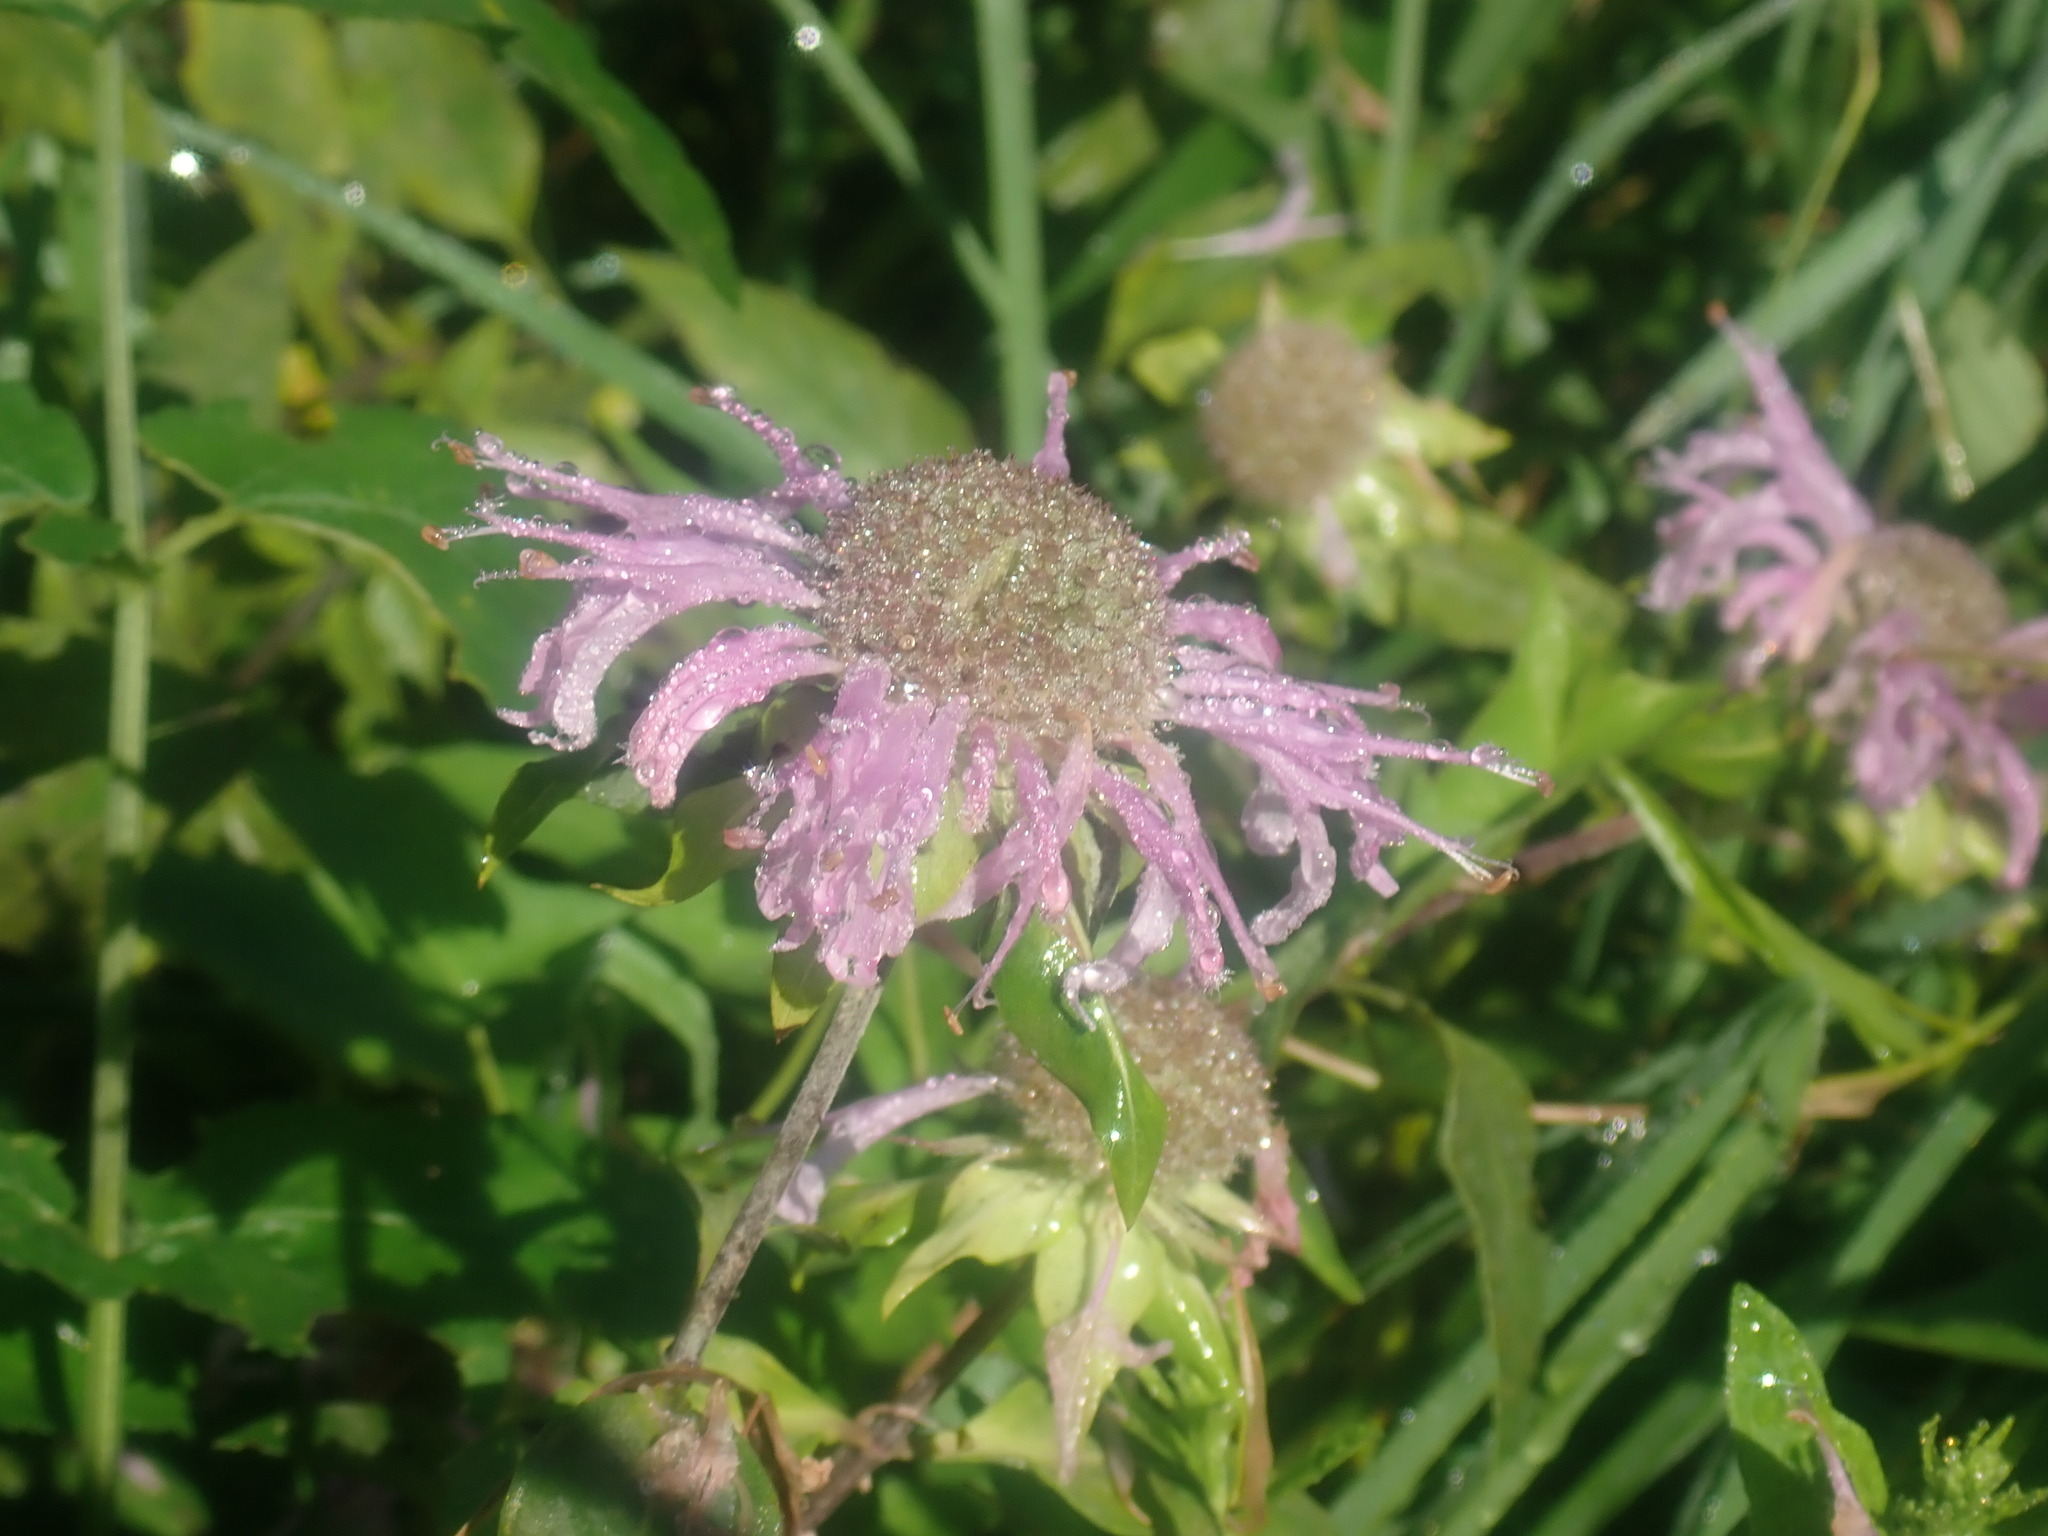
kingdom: Plantae
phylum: Tracheophyta
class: Magnoliopsida
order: Lamiales
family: Lamiaceae
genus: Monarda
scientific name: Monarda fistulosa
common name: Purple beebalm
